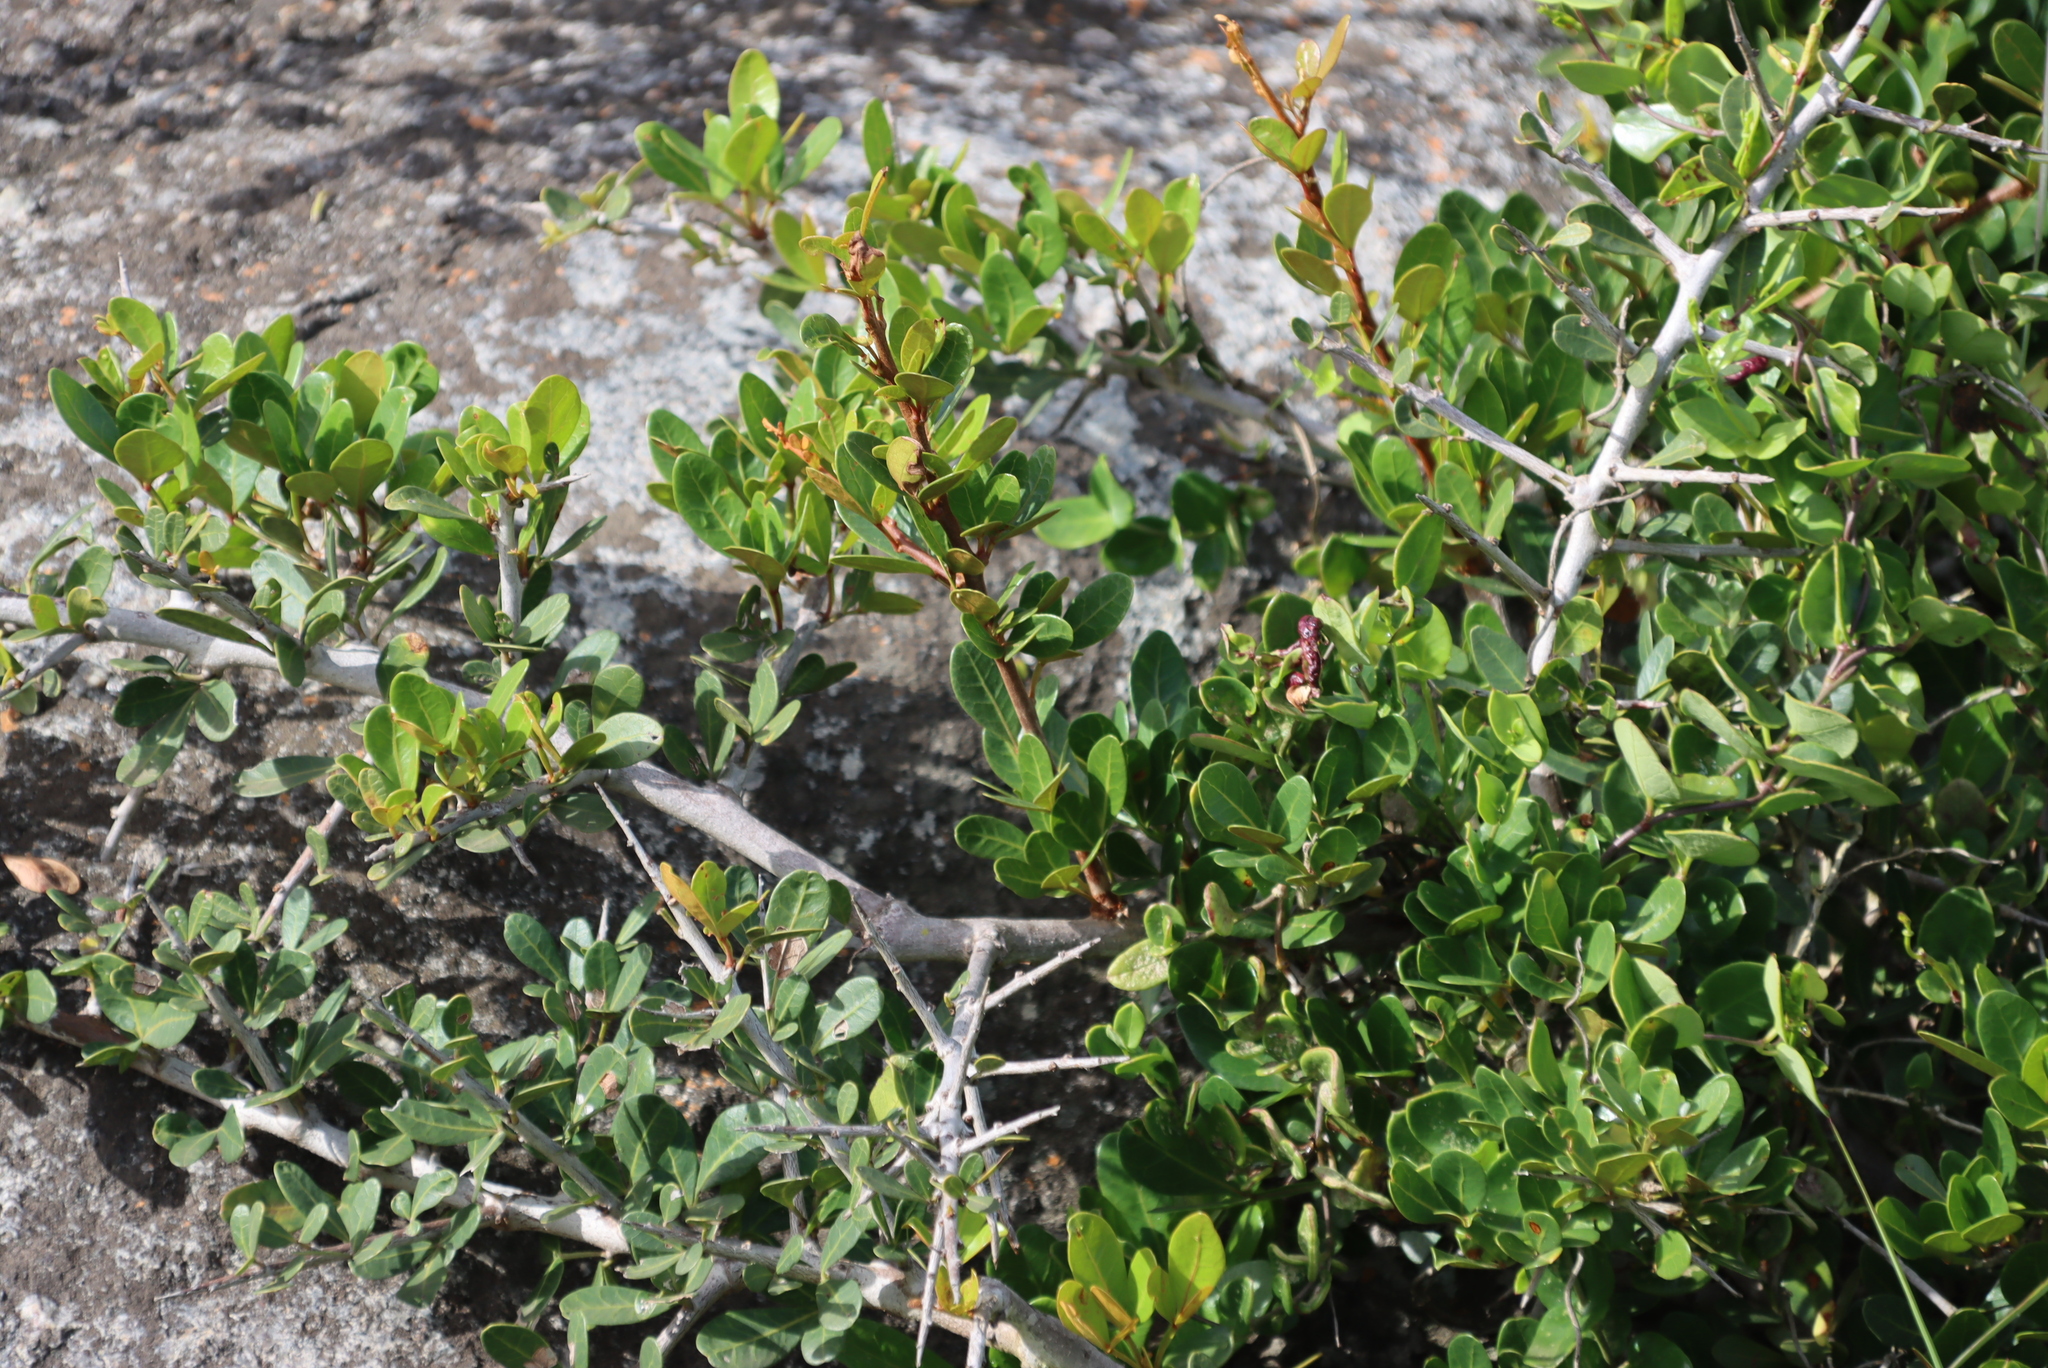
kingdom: Plantae
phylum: Tracheophyta
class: Magnoliopsida
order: Sapindales
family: Anacardiaceae
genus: Searsia
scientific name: Searsia pterota
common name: Winged currant
